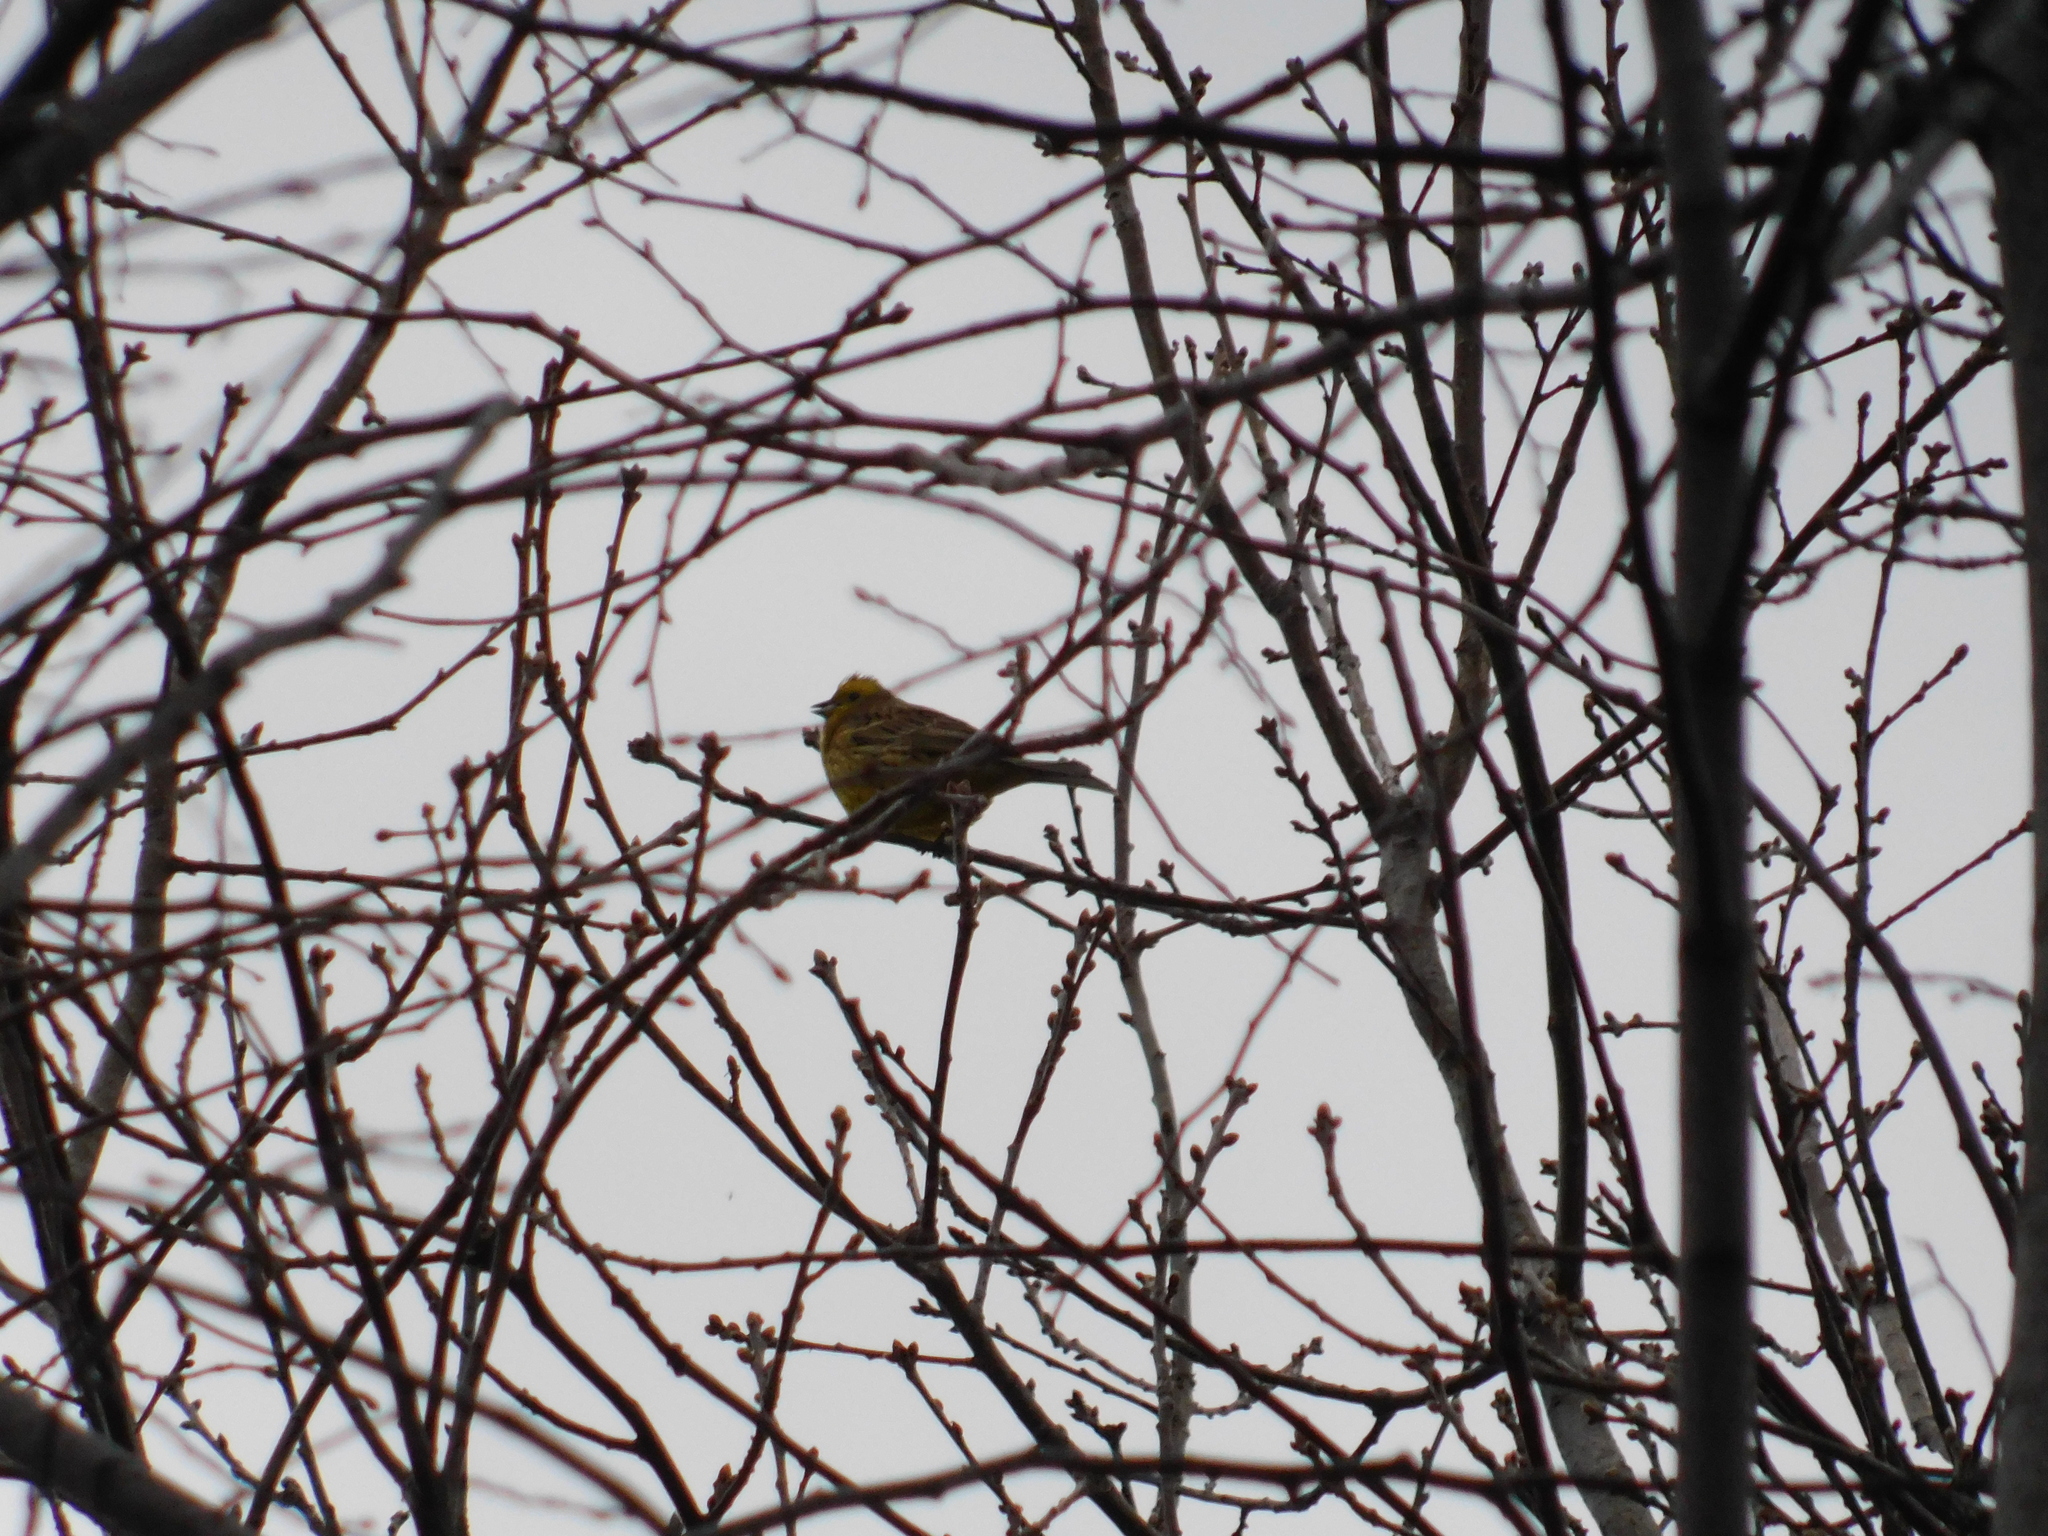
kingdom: Animalia
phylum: Chordata
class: Aves
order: Passeriformes
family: Emberizidae
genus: Emberiza
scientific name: Emberiza citrinella
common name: Yellowhammer
